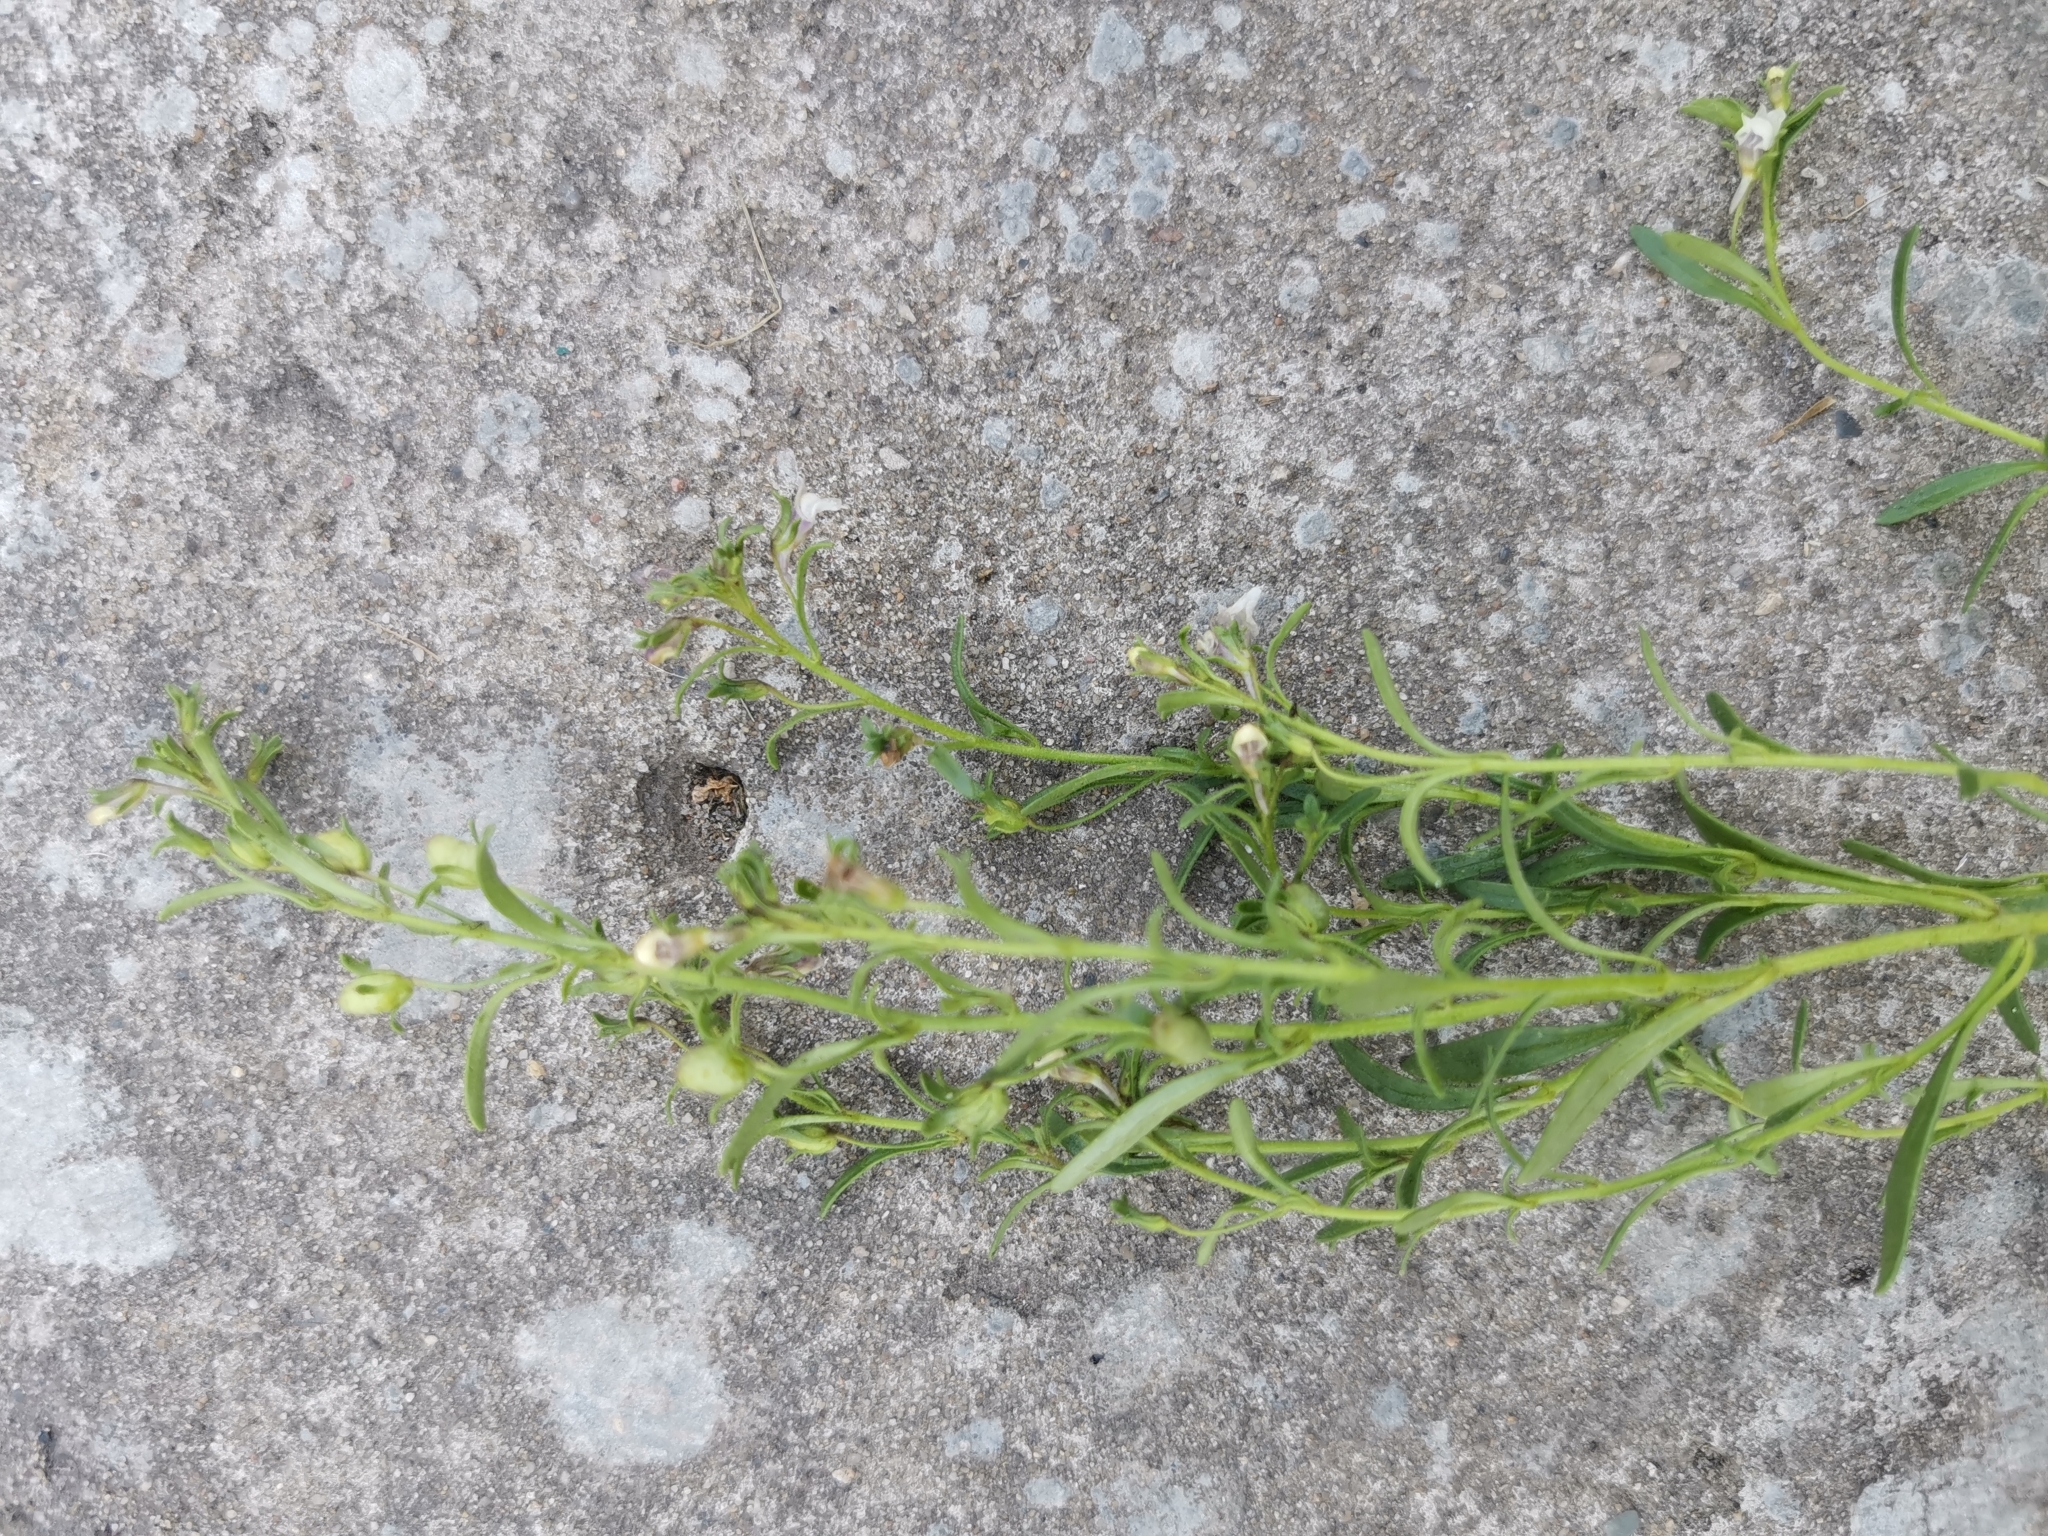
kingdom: Plantae
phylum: Tracheophyta
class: Magnoliopsida
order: Lamiales
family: Plantaginaceae
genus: Chaenorhinum
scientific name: Chaenorhinum minus
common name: Dwarf snapdragon
